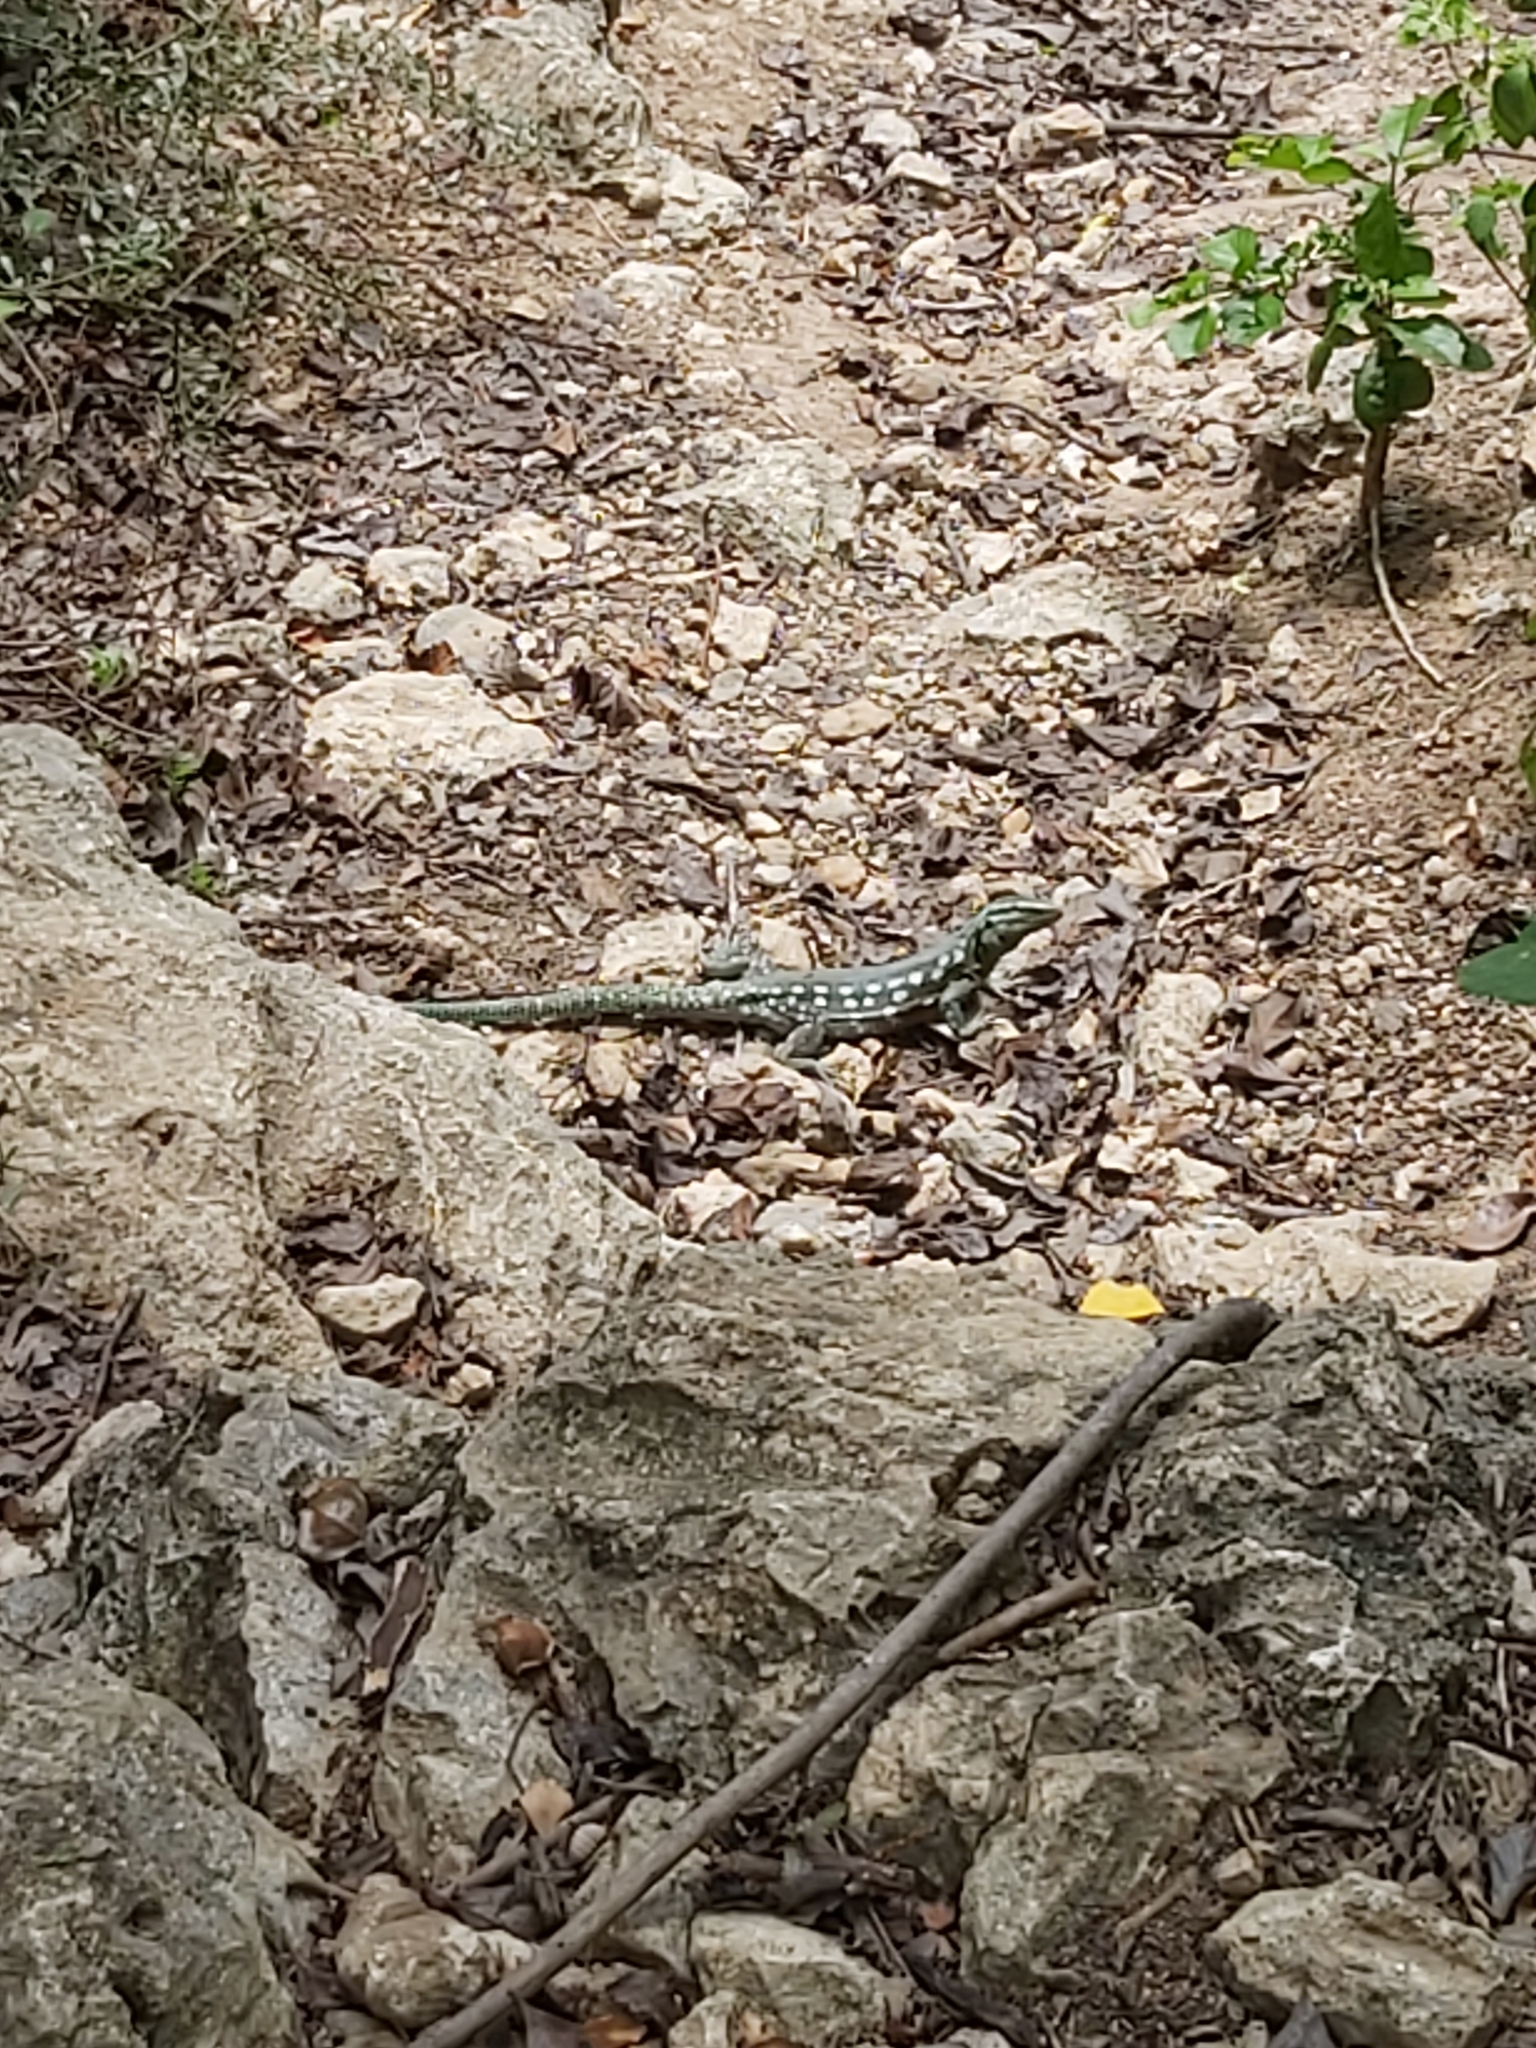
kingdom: Animalia
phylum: Chordata
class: Squamata
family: Teiidae
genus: Cnemidophorus
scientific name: Cnemidophorus murinus
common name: Laurent's whiptail
